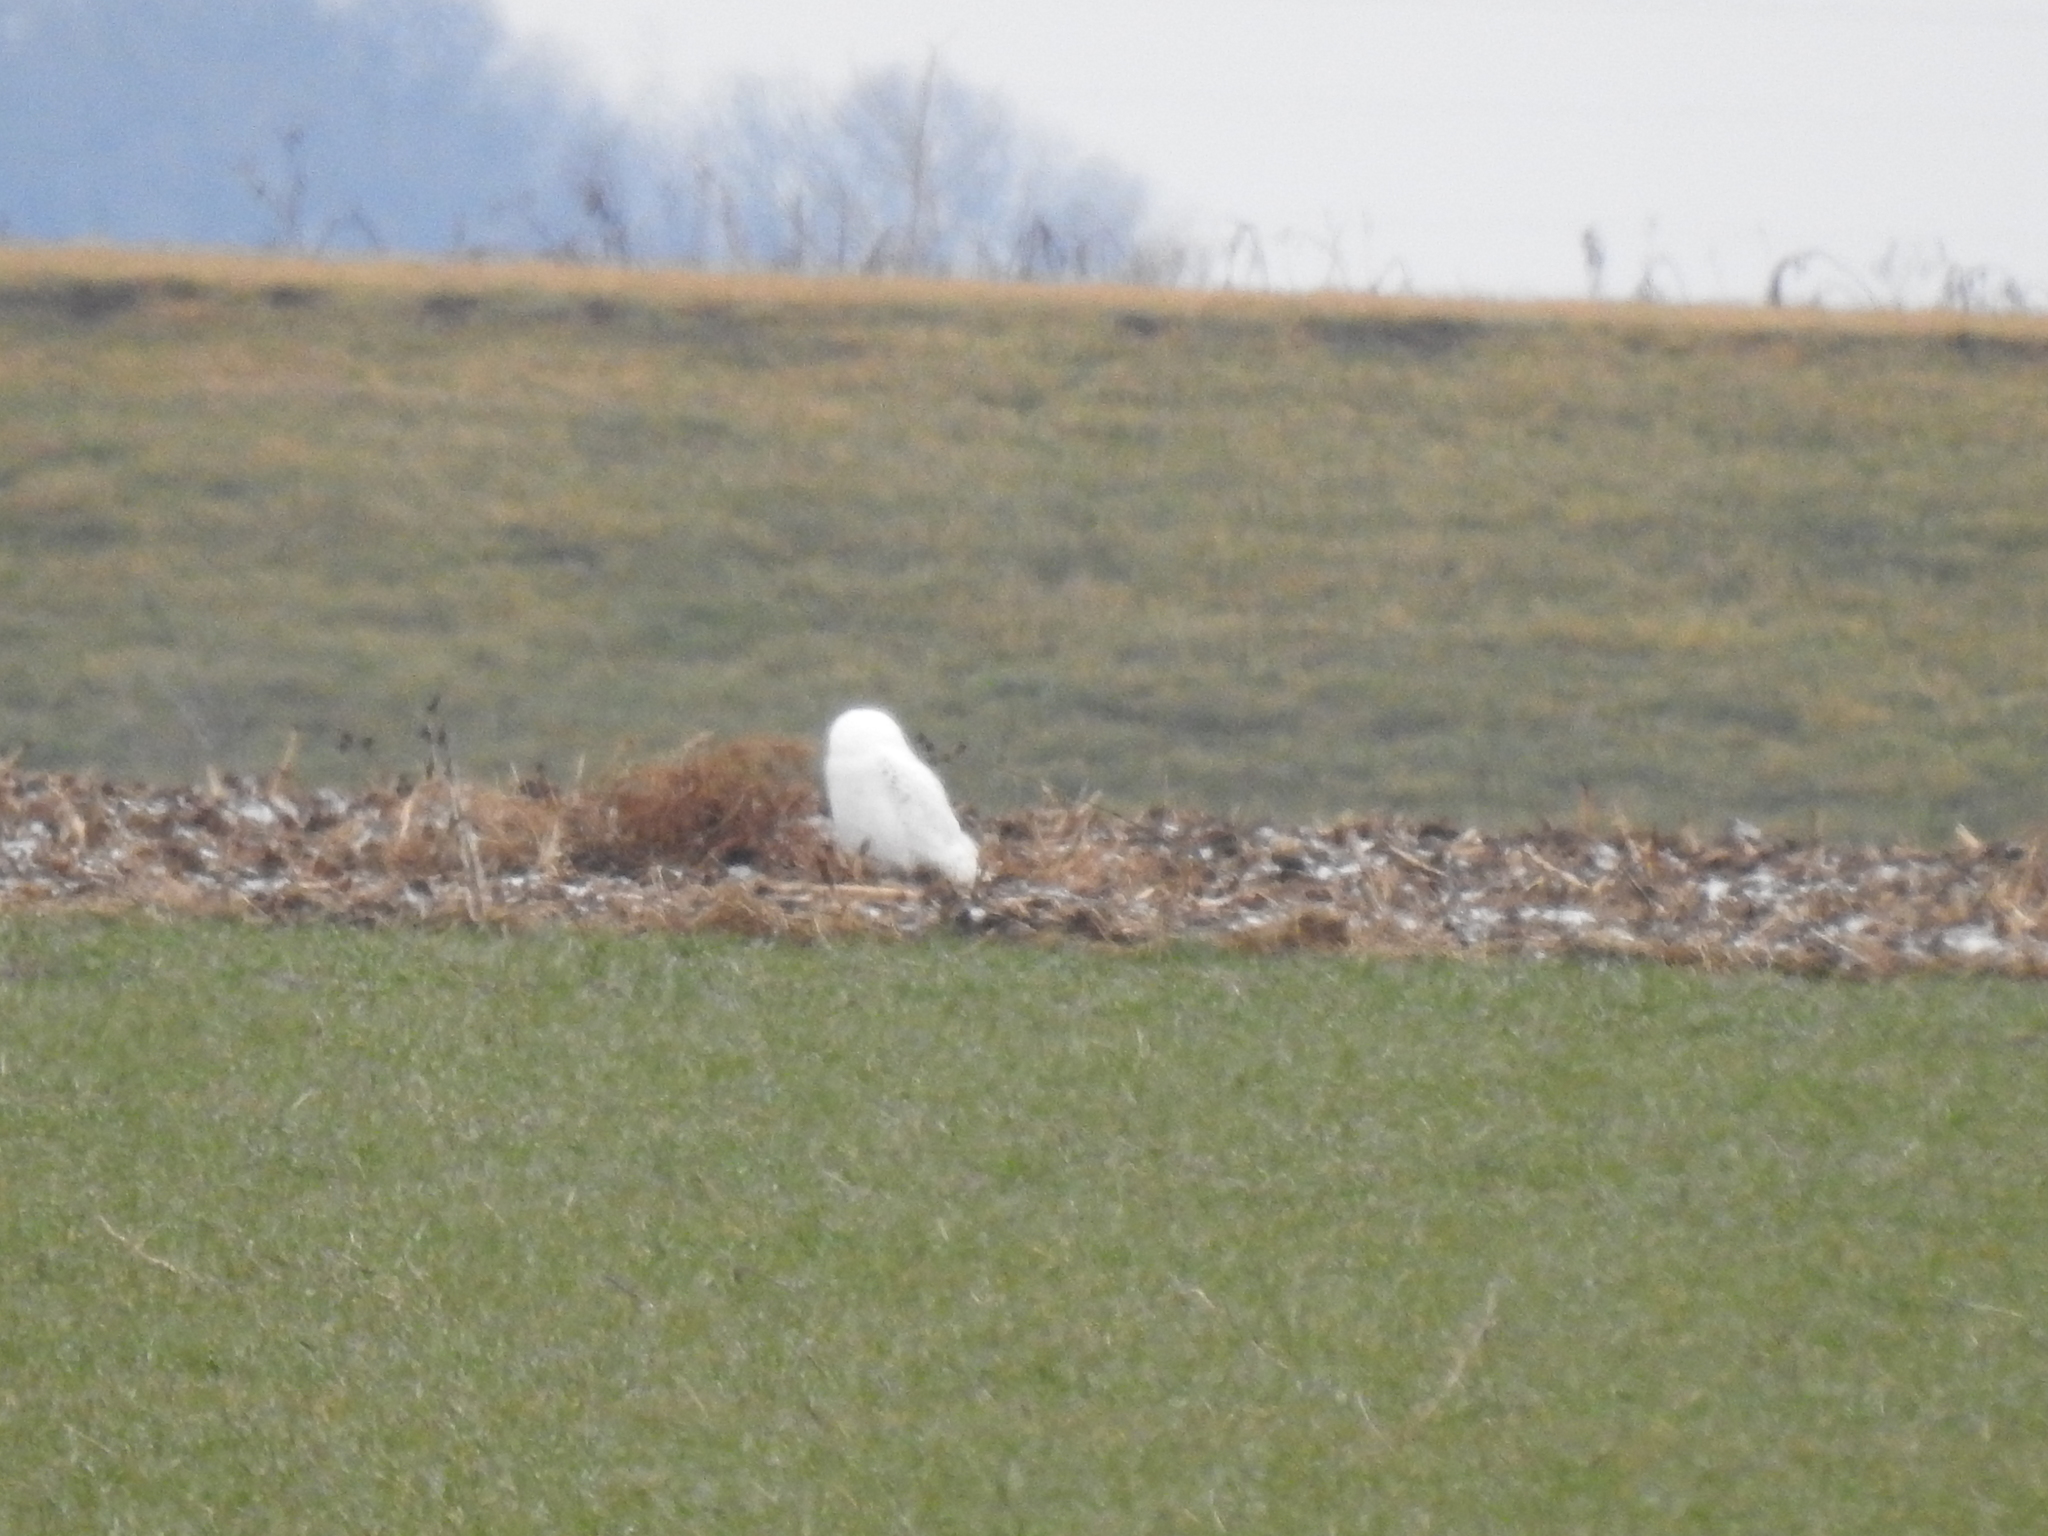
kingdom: Animalia
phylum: Chordata
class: Aves
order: Strigiformes
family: Strigidae
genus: Bubo
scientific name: Bubo scandiacus
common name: Snowy owl
